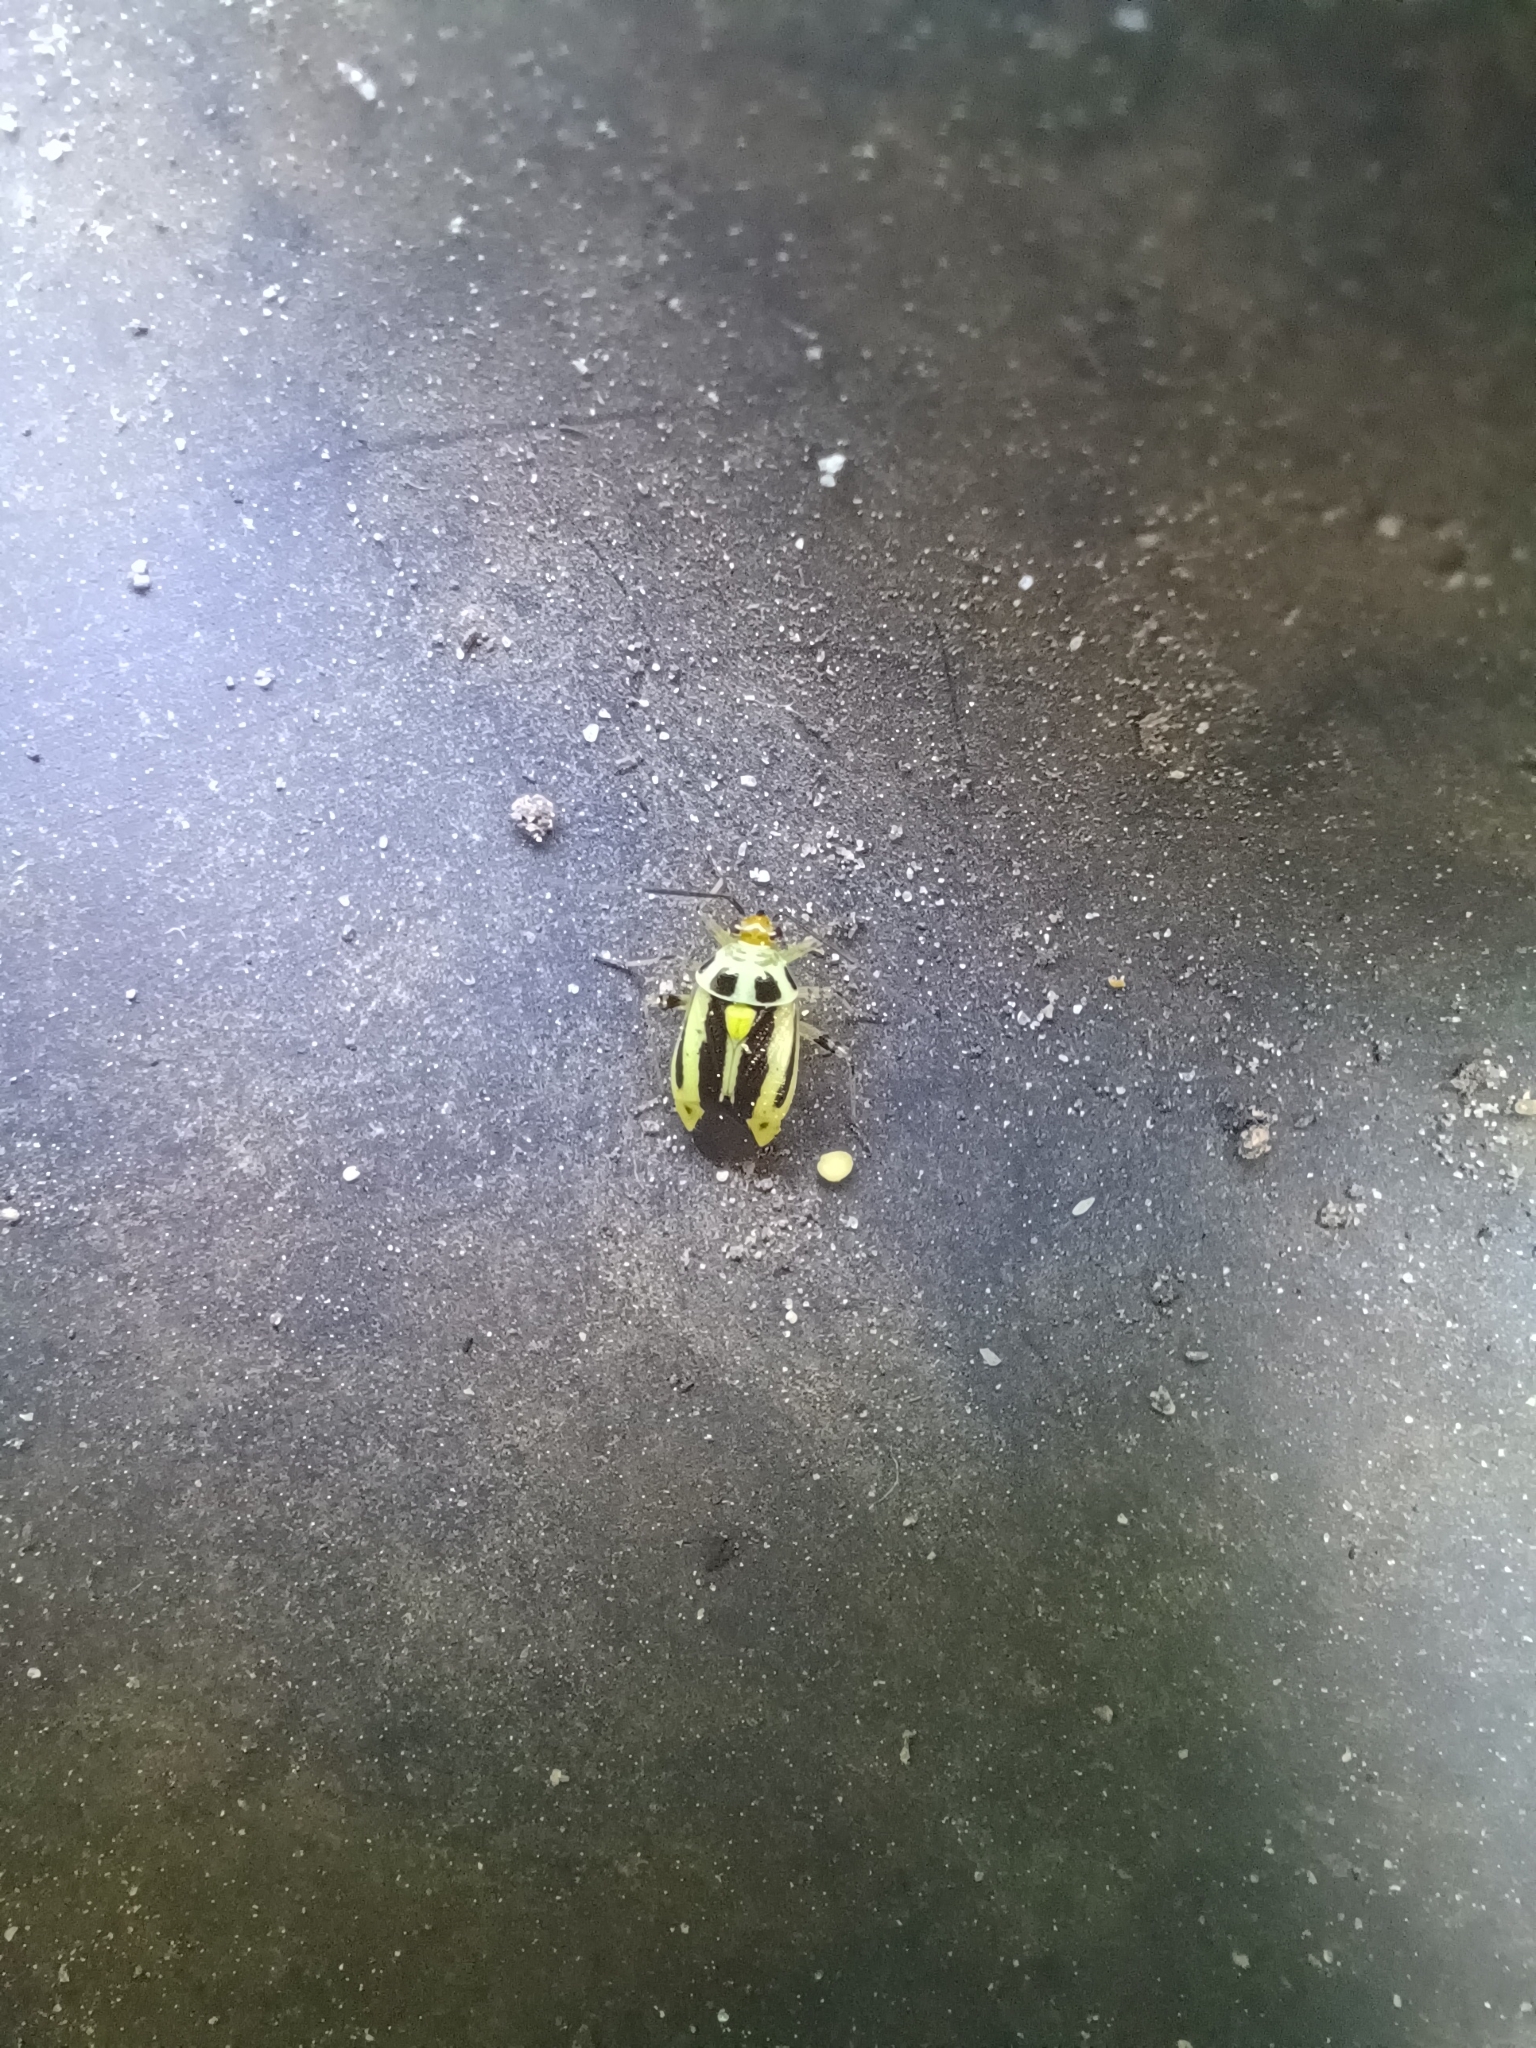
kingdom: Animalia
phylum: Arthropoda
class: Insecta
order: Hemiptera
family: Miridae
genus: Poecilocapsus
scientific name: Poecilocapsus lineatus
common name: Four-lined plant bug
